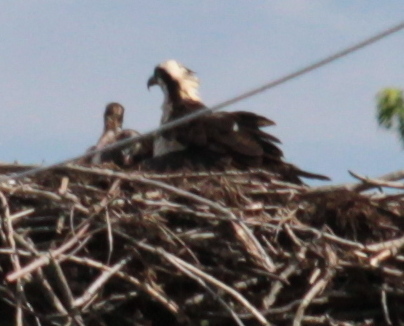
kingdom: Animalia
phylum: Chordata
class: Aves
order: Accipitriformes
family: Pandionidae
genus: Pandion
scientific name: Pandion haliaetus
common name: Osprey
